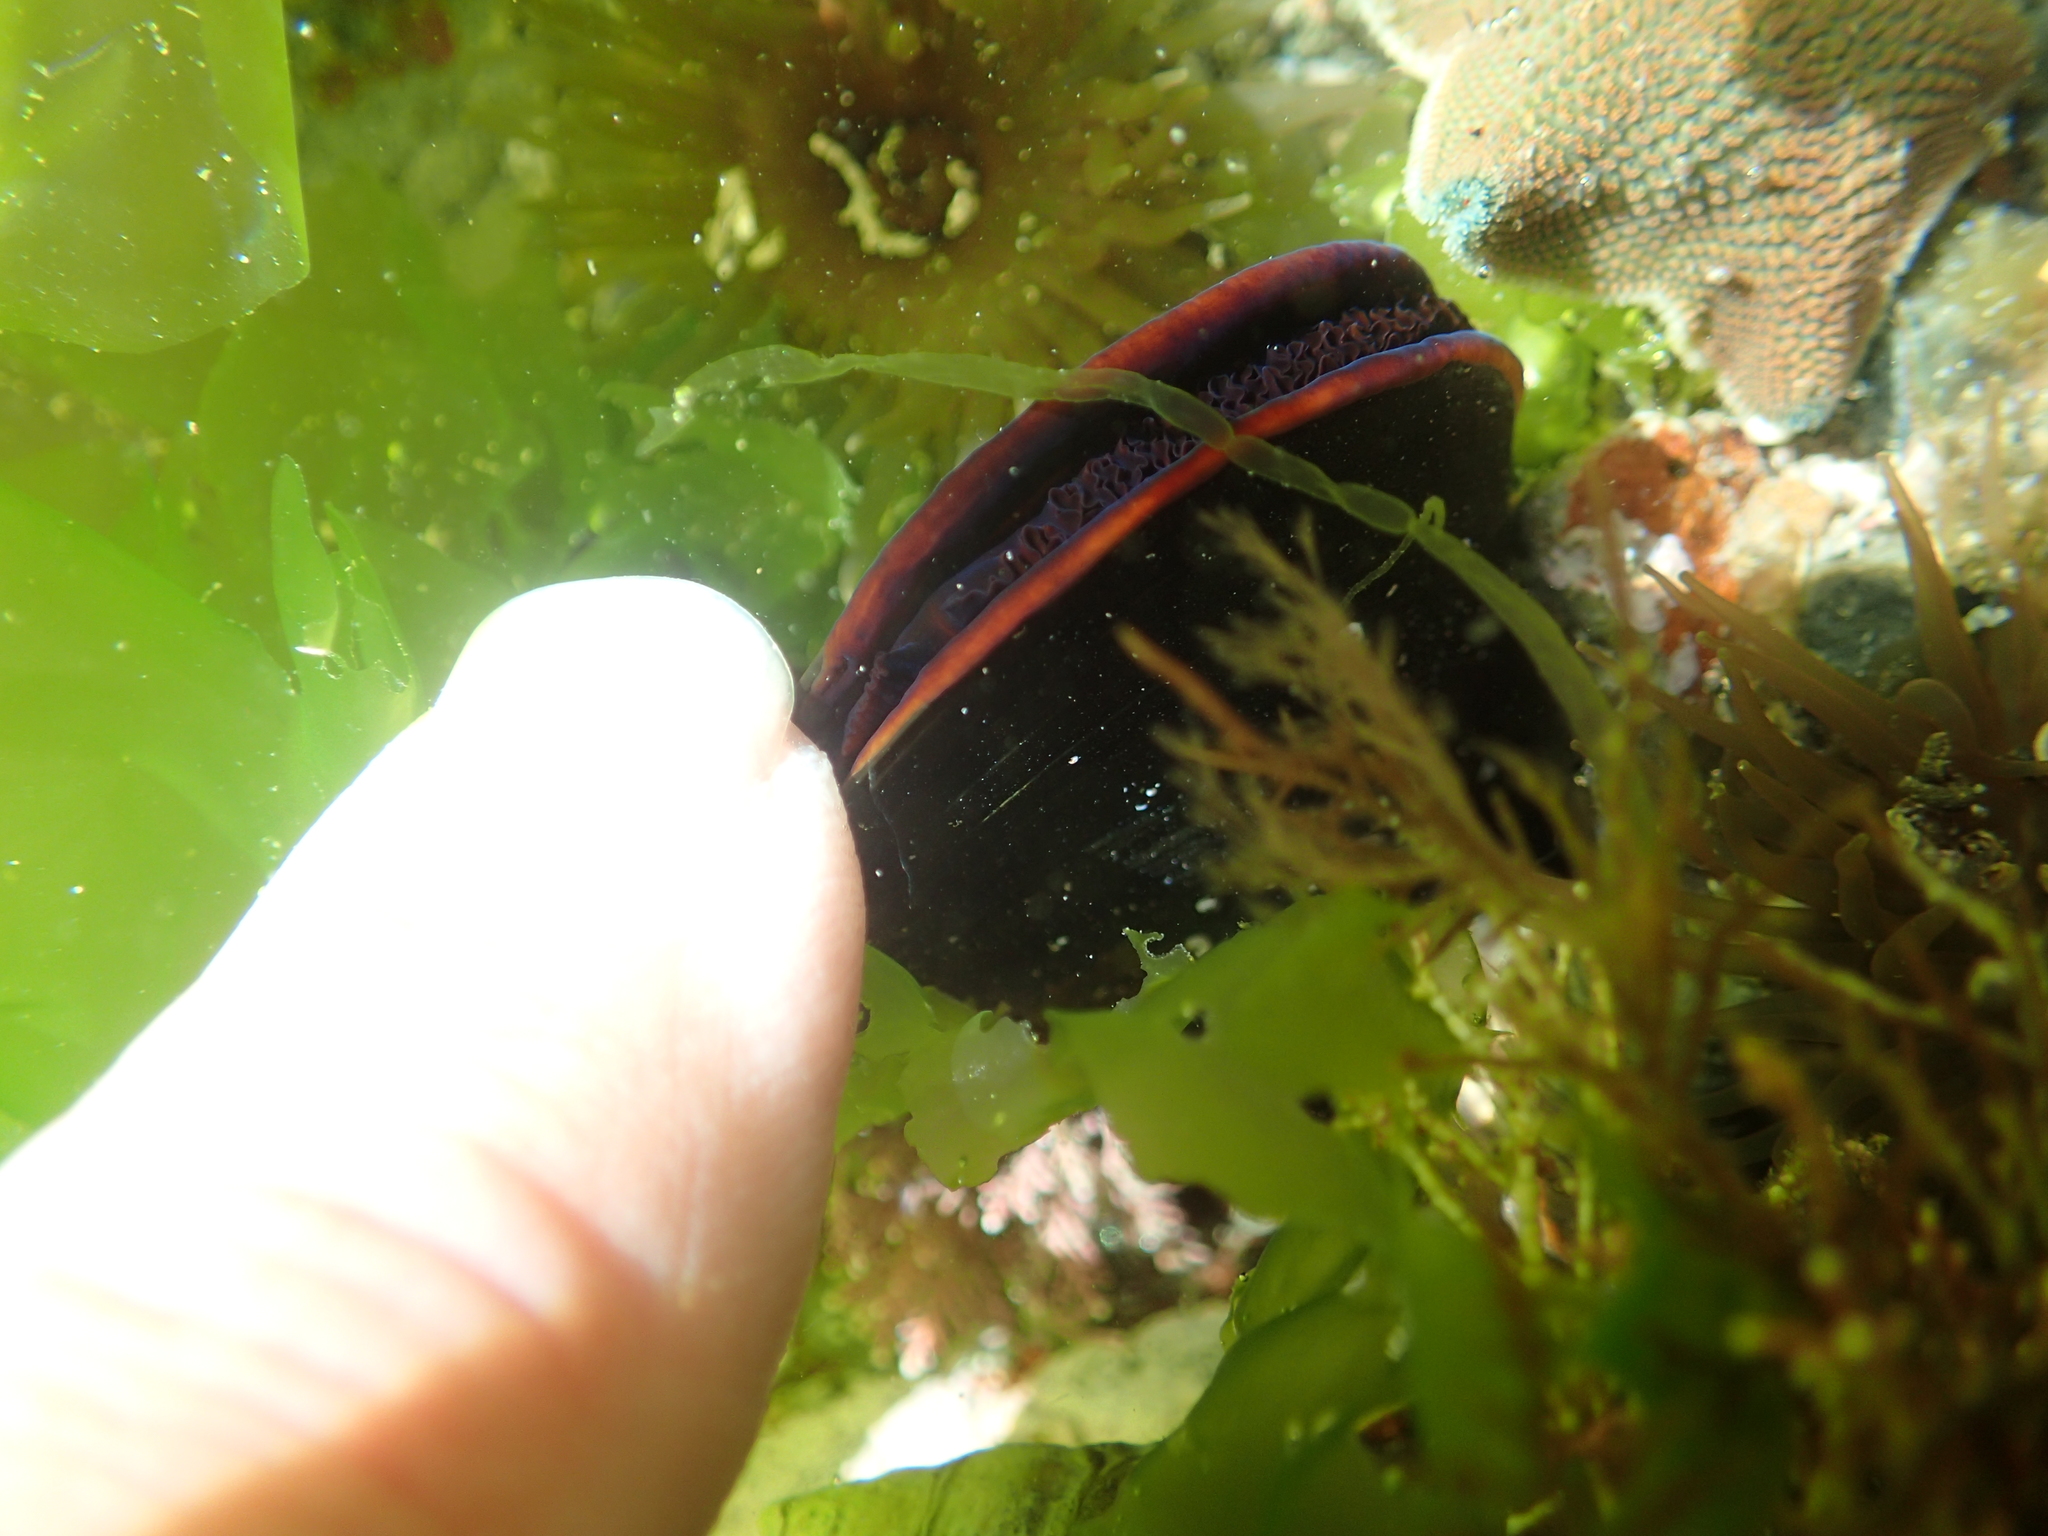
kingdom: Animalia
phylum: Mollusca
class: Bivalvia
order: Mytilida
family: Mytilidae
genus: Perna
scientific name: Perna canaliculus
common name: New zealand greenshelltm
